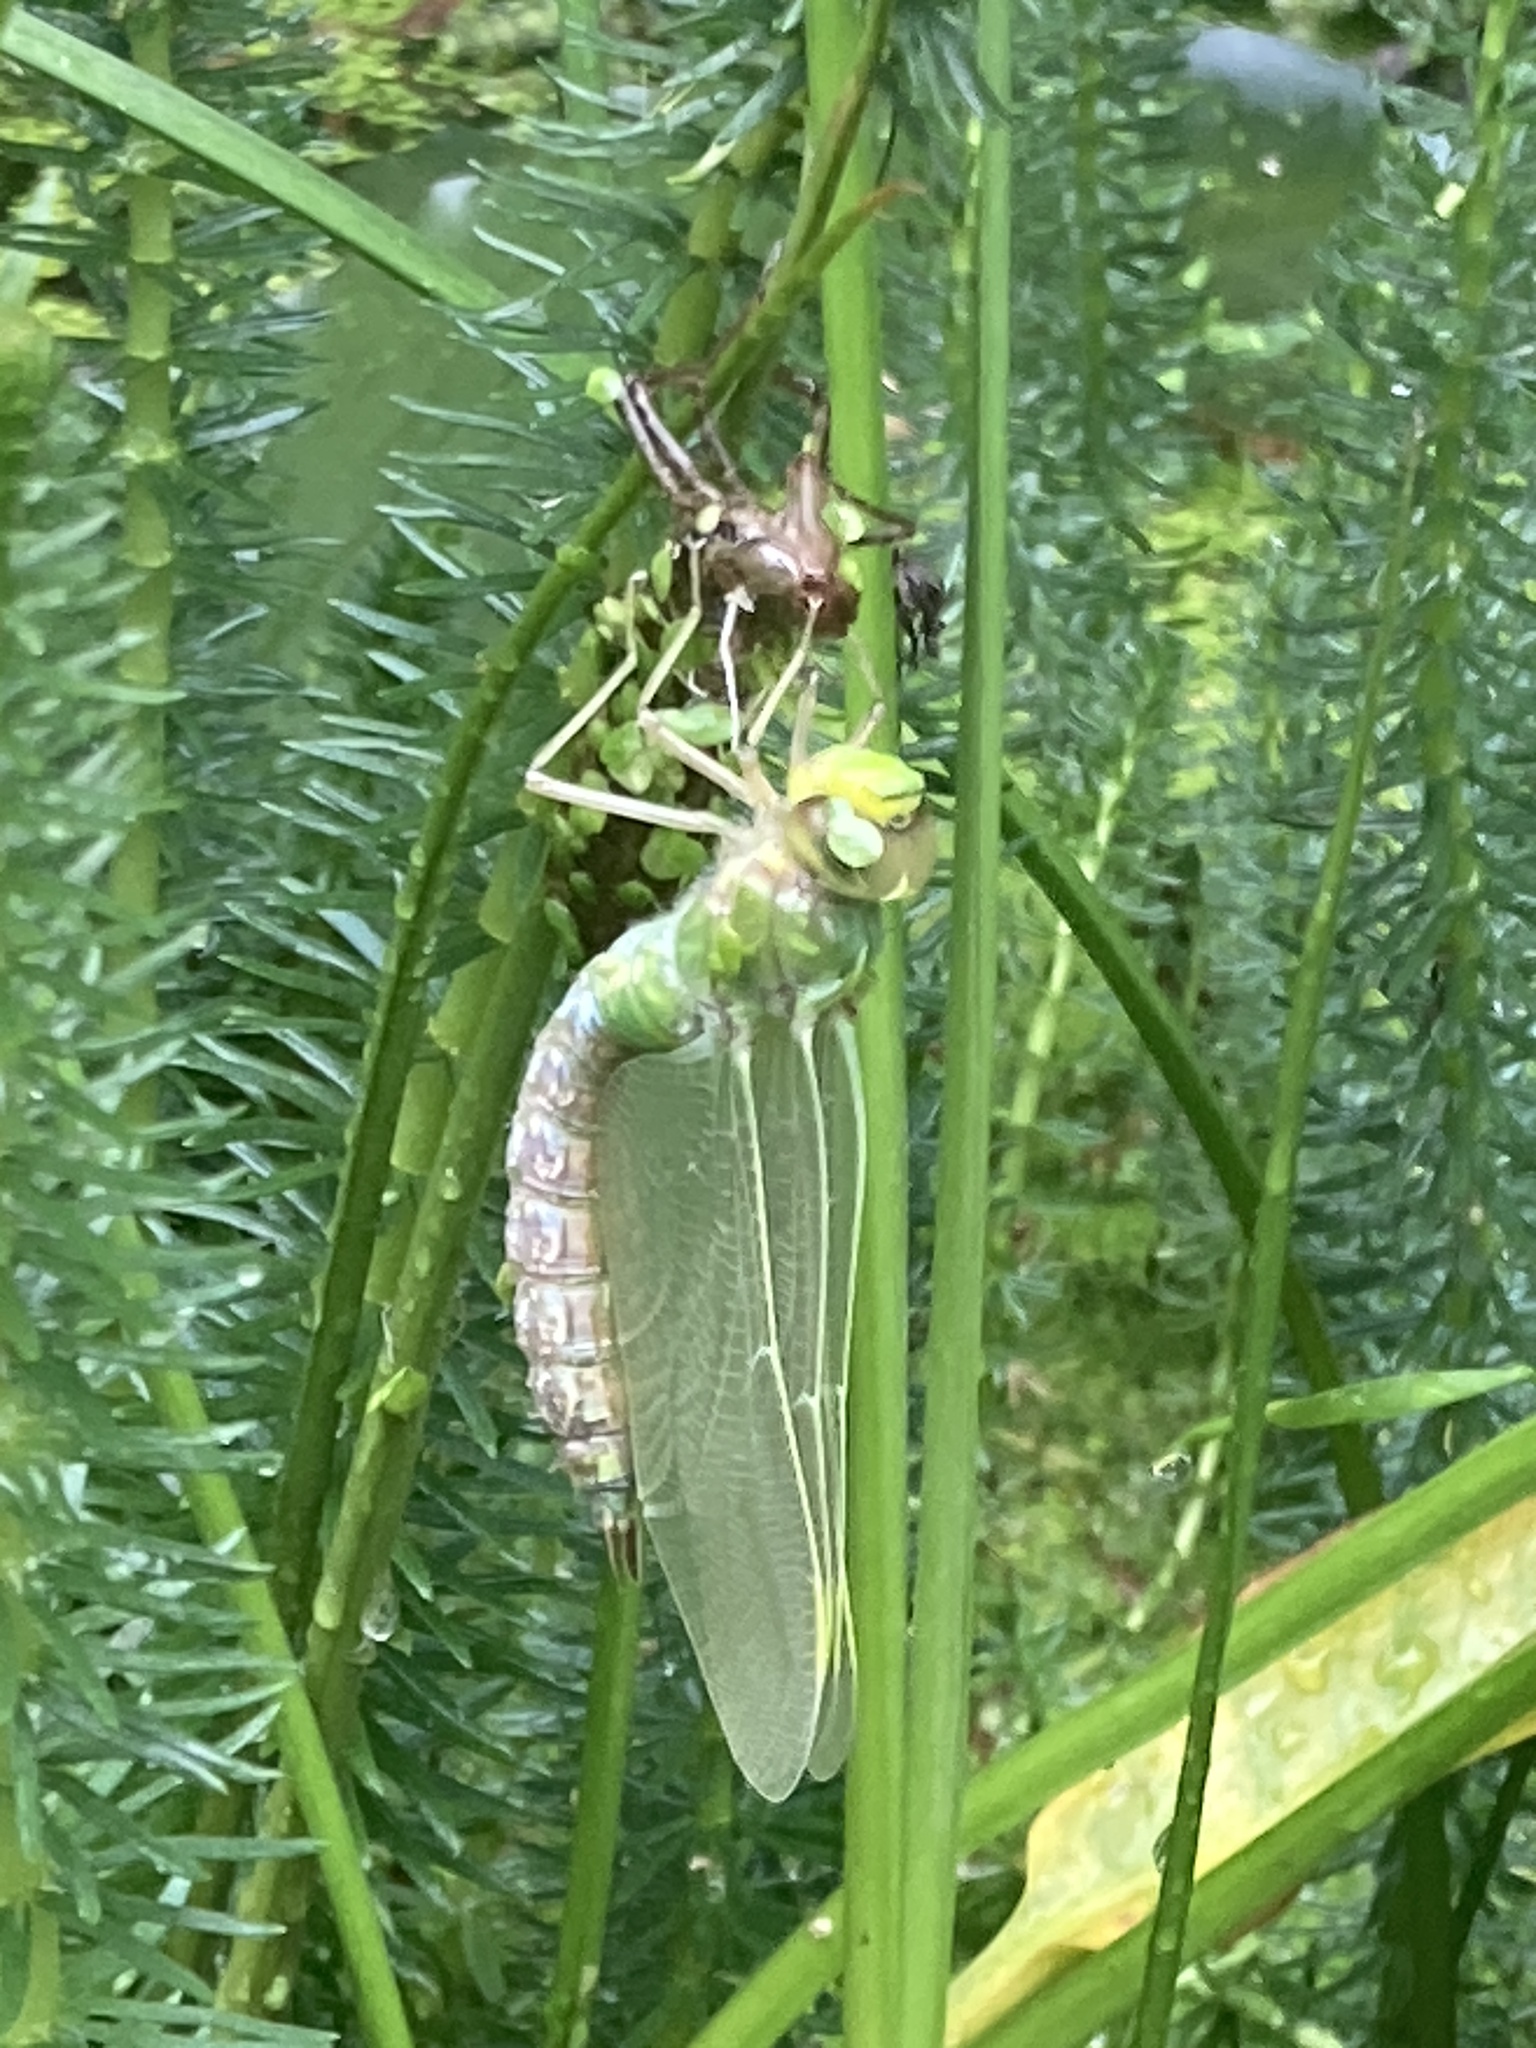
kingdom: Animalia
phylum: Arthropoda
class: Insecta
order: Odonata
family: Aeshnidae
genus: Anax
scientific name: Anax imperator
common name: Emperor dragonfly
